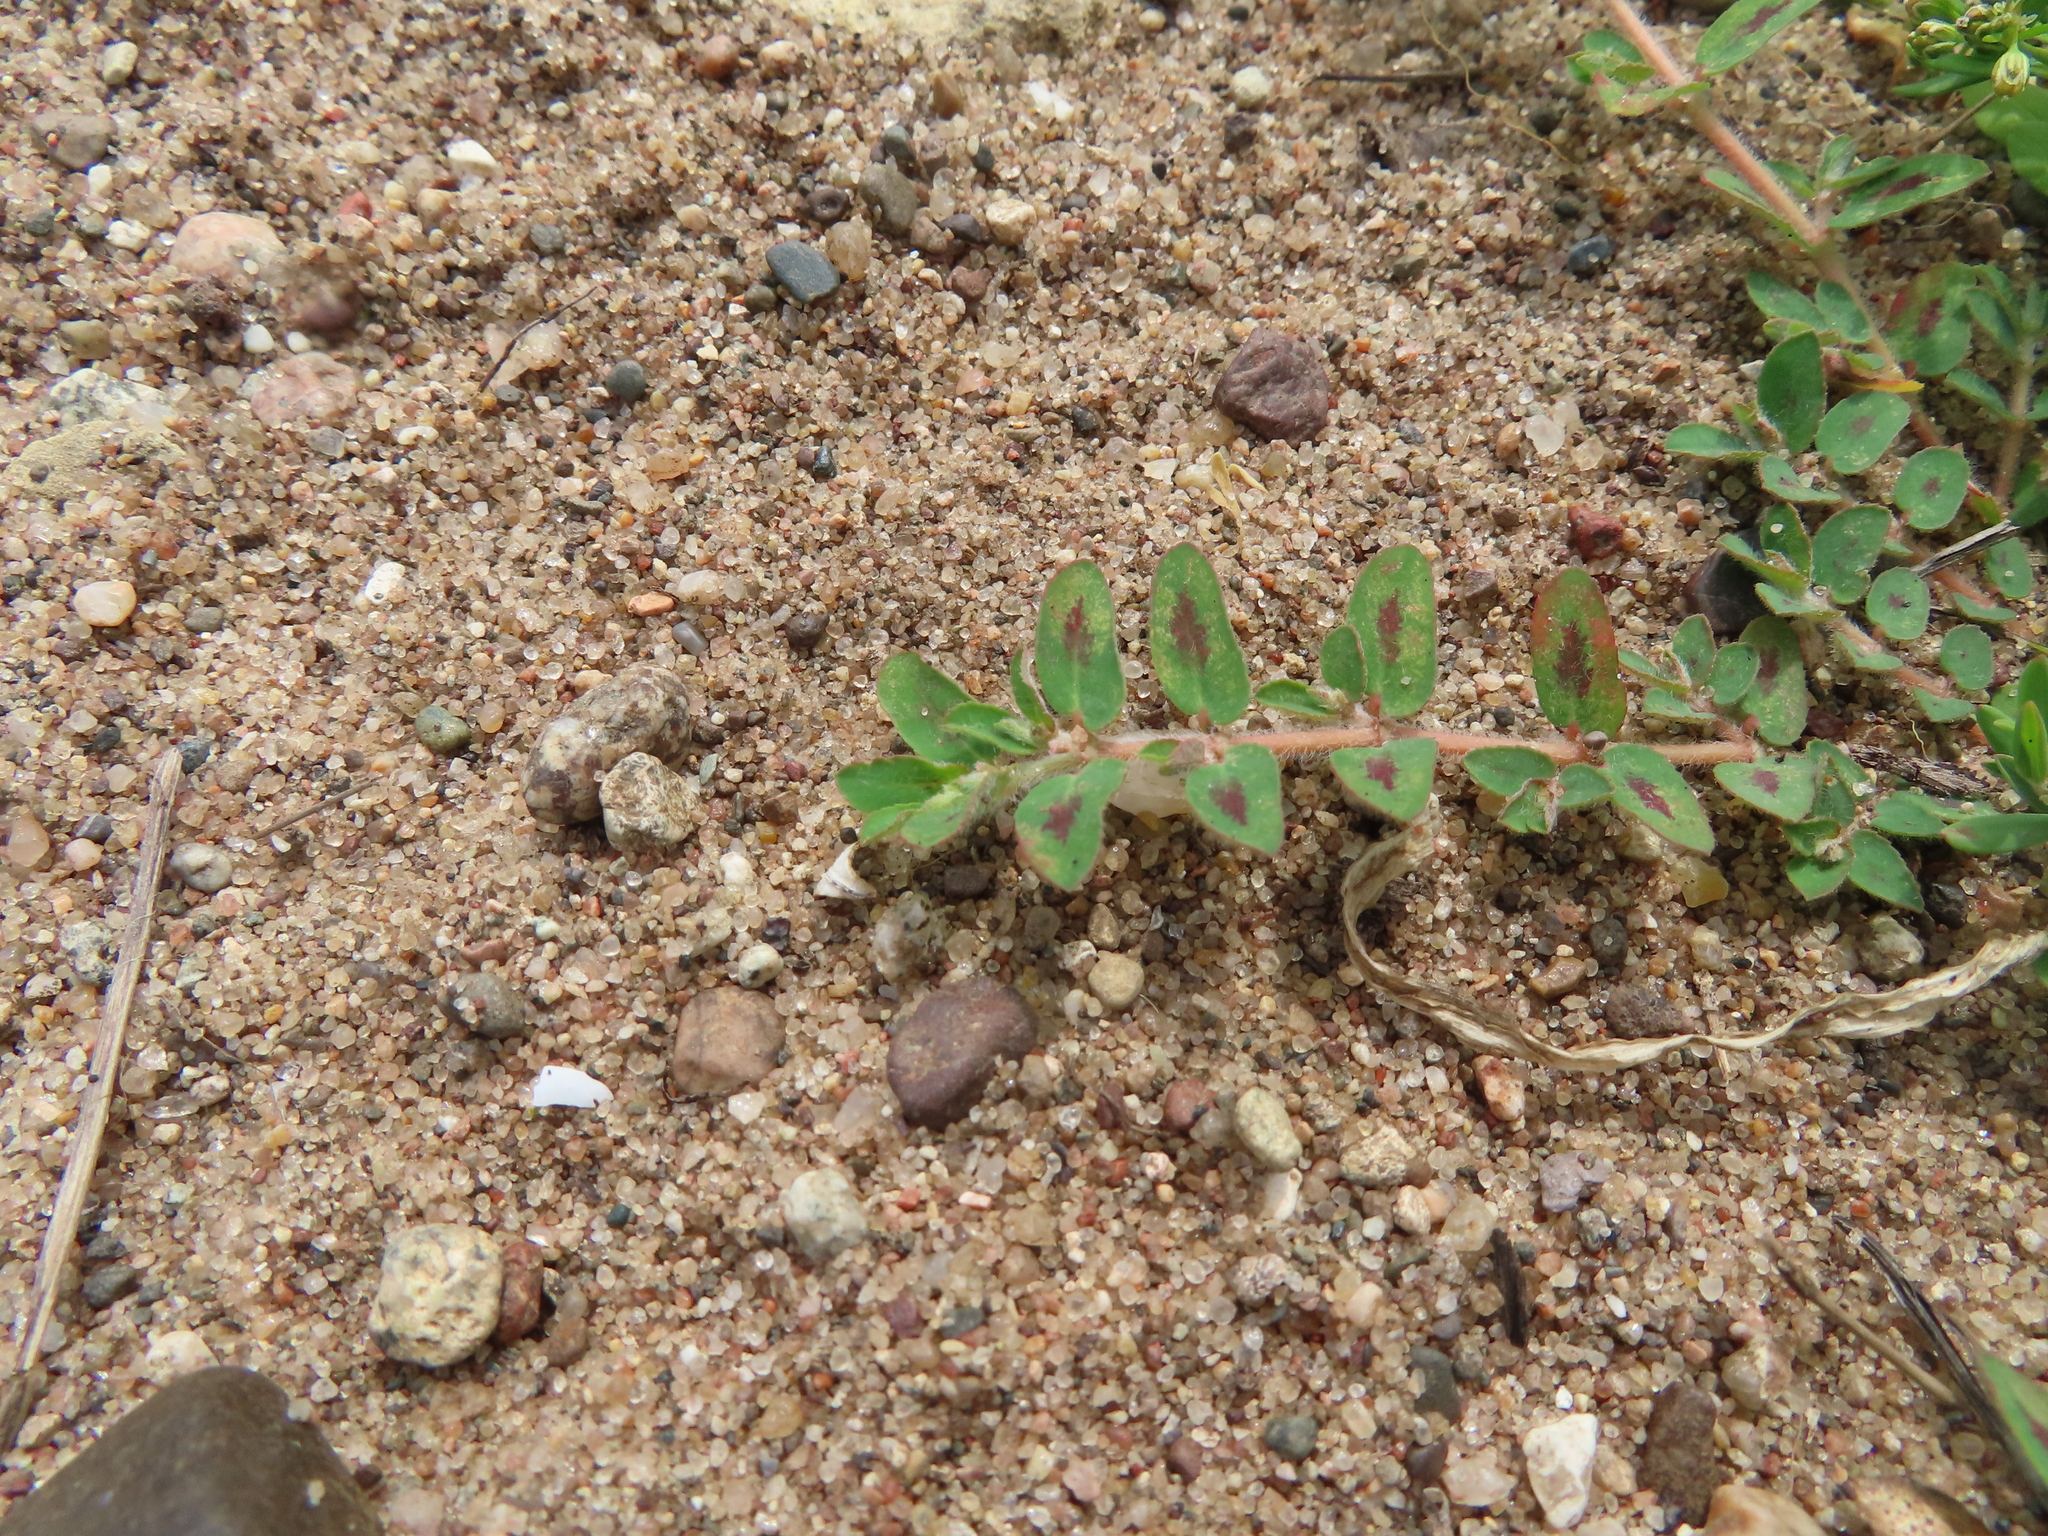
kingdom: Plantae
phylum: Tracheophyta
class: Magnoliopsida
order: Malpighiales
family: Euphorbiaceae
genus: Euphorbia
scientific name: Euphorbia maculata
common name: Spotted spurge
